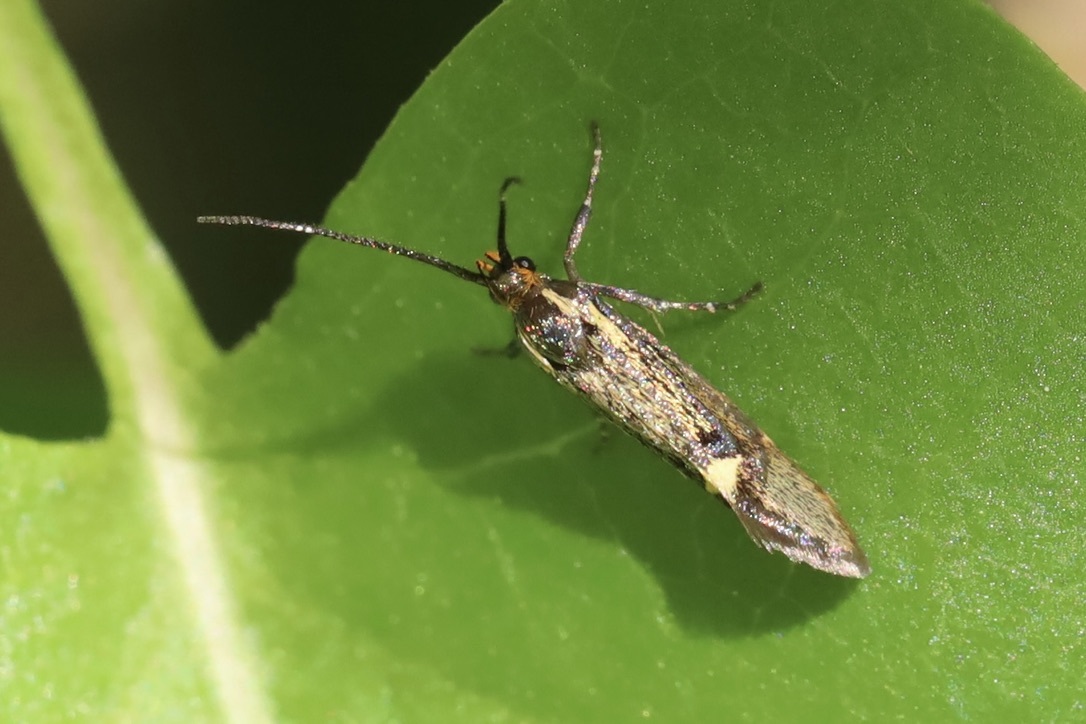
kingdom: Animalia
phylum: Arthropoda
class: Insecta
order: Lepidoptera
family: Oecophoridae
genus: Dafa
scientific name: Dafa Esperia sulphurella
